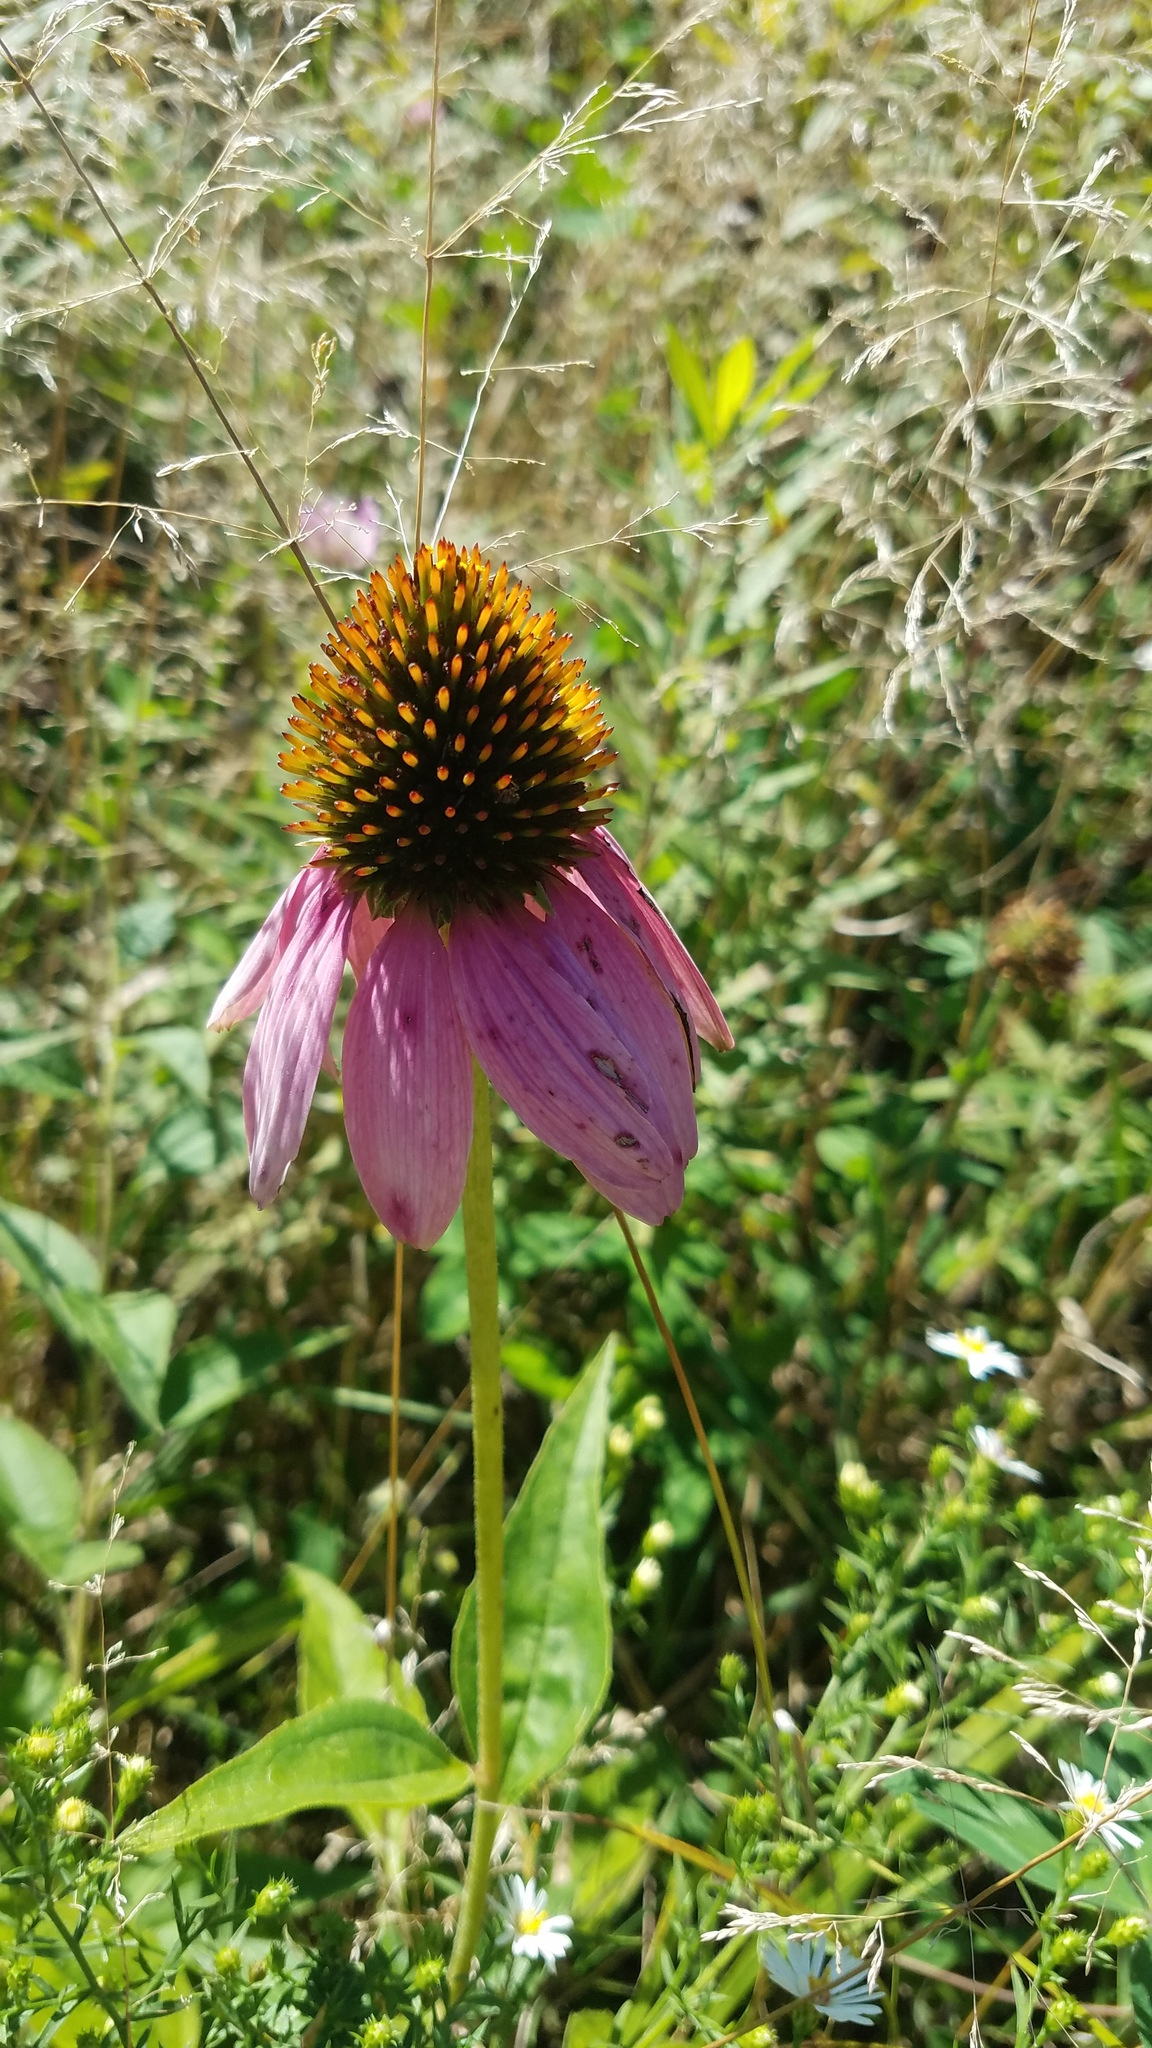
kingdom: Plantae
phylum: Tracheophyta
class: Magnoliopsida
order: Asterales
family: Asteraceae
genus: Echinacea
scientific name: Echinacea purpurea
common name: Broad-leaved purple coneflower
